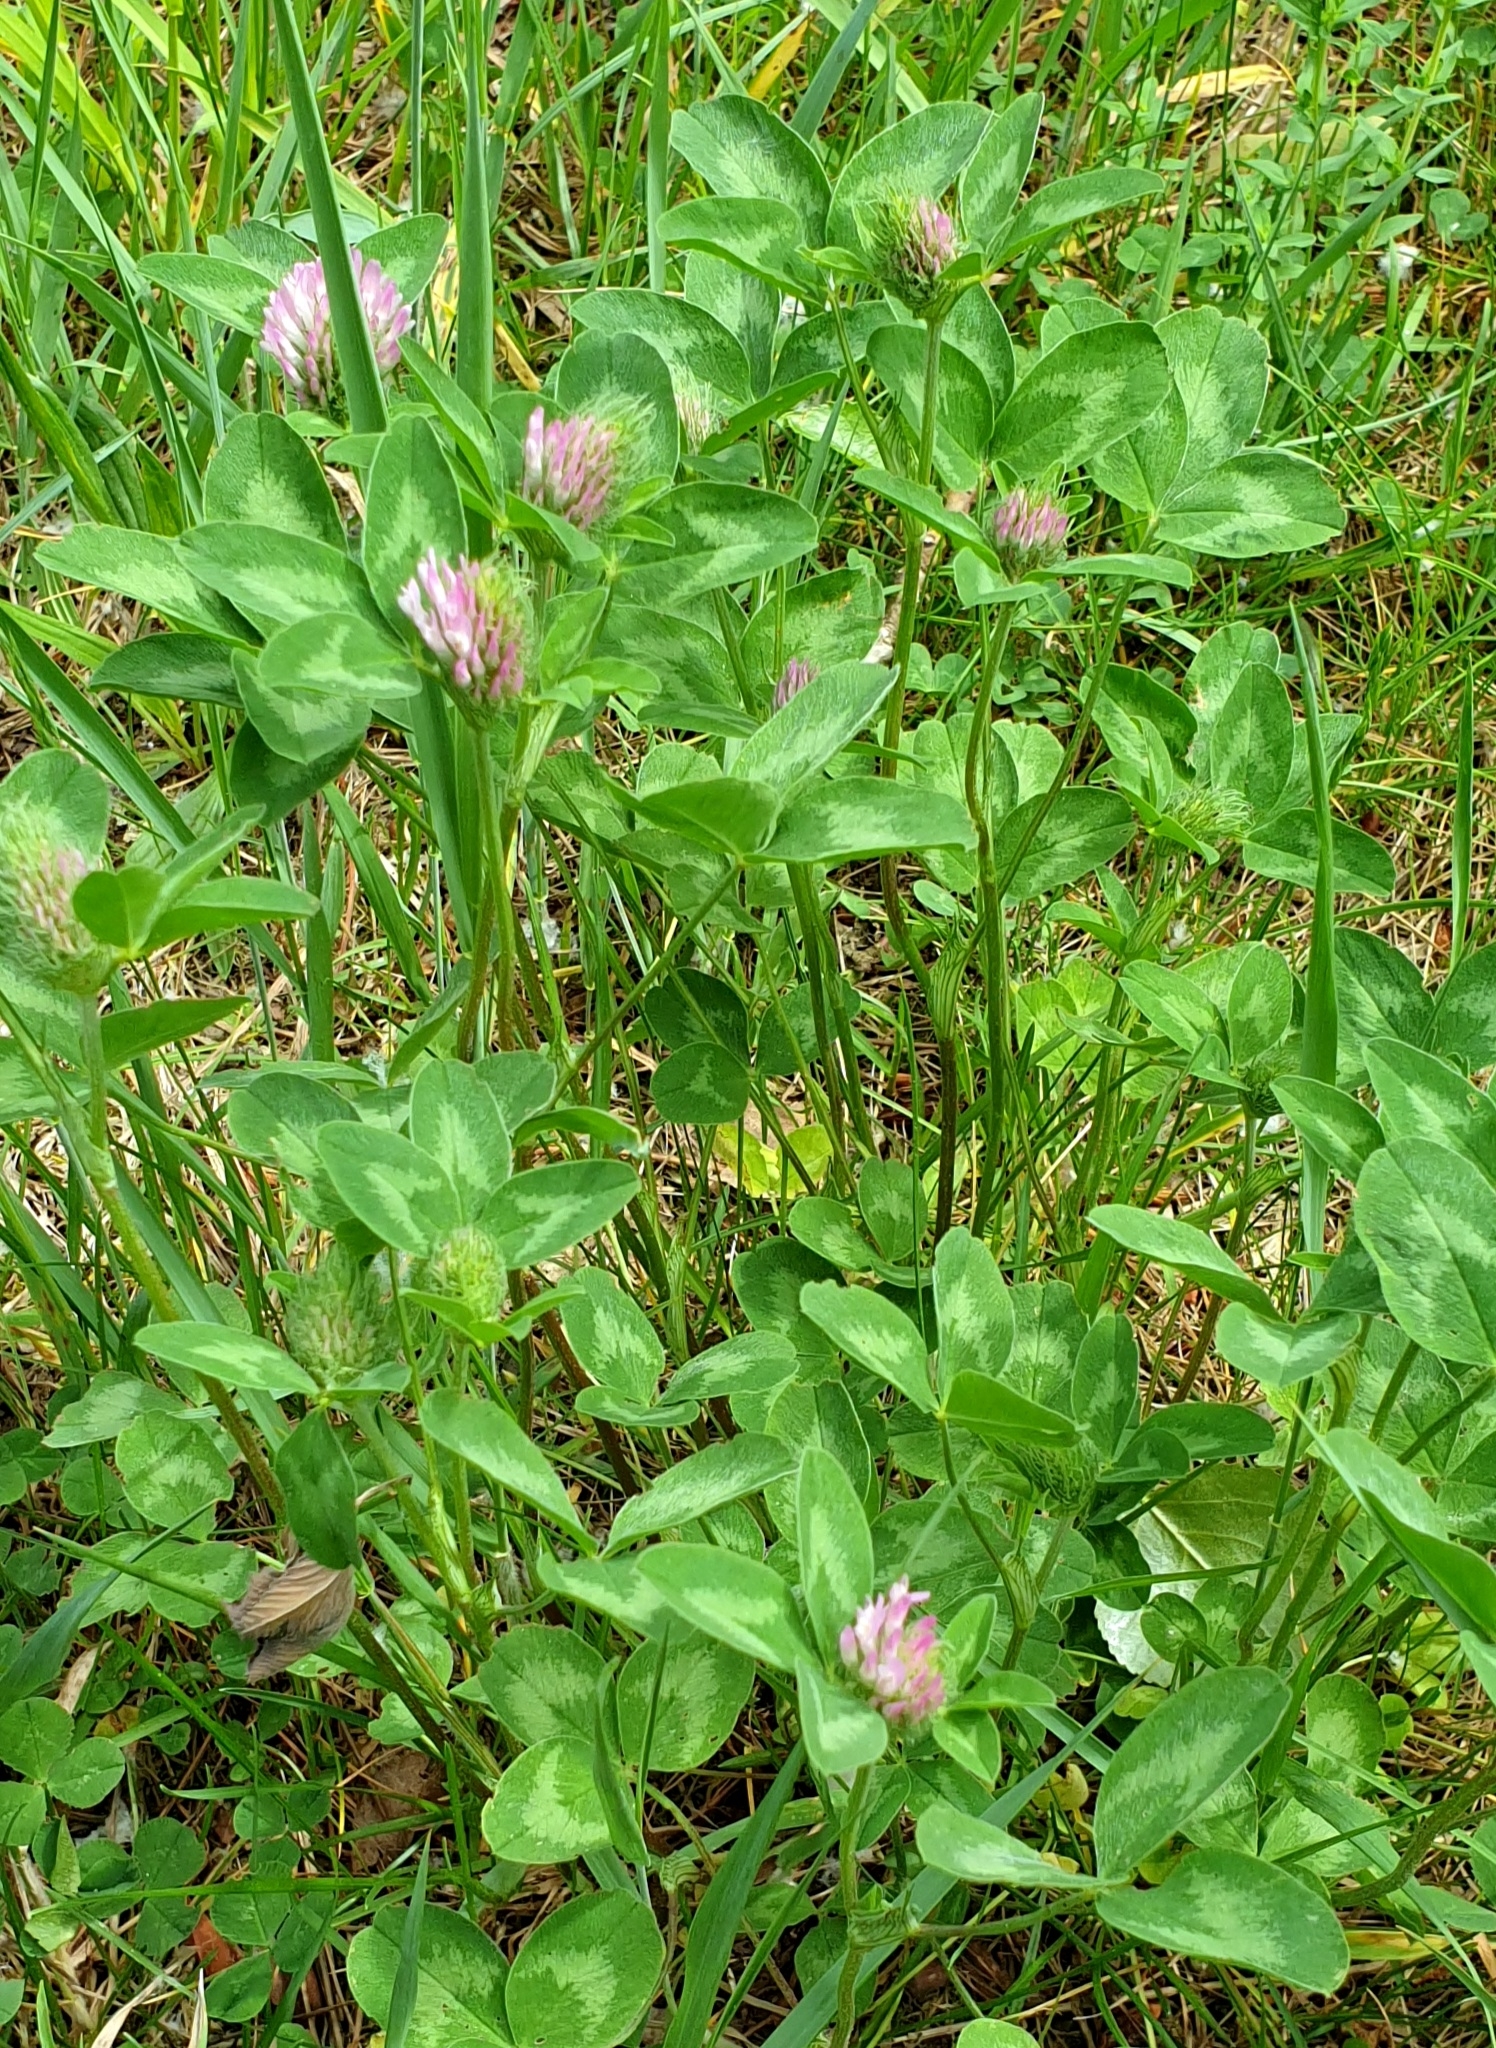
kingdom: Plantae
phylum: Tracheophyta
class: Magnoliopsida
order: Fabales
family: Fabaceae
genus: Trifolium
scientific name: Trifolium pratense
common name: Red clover
